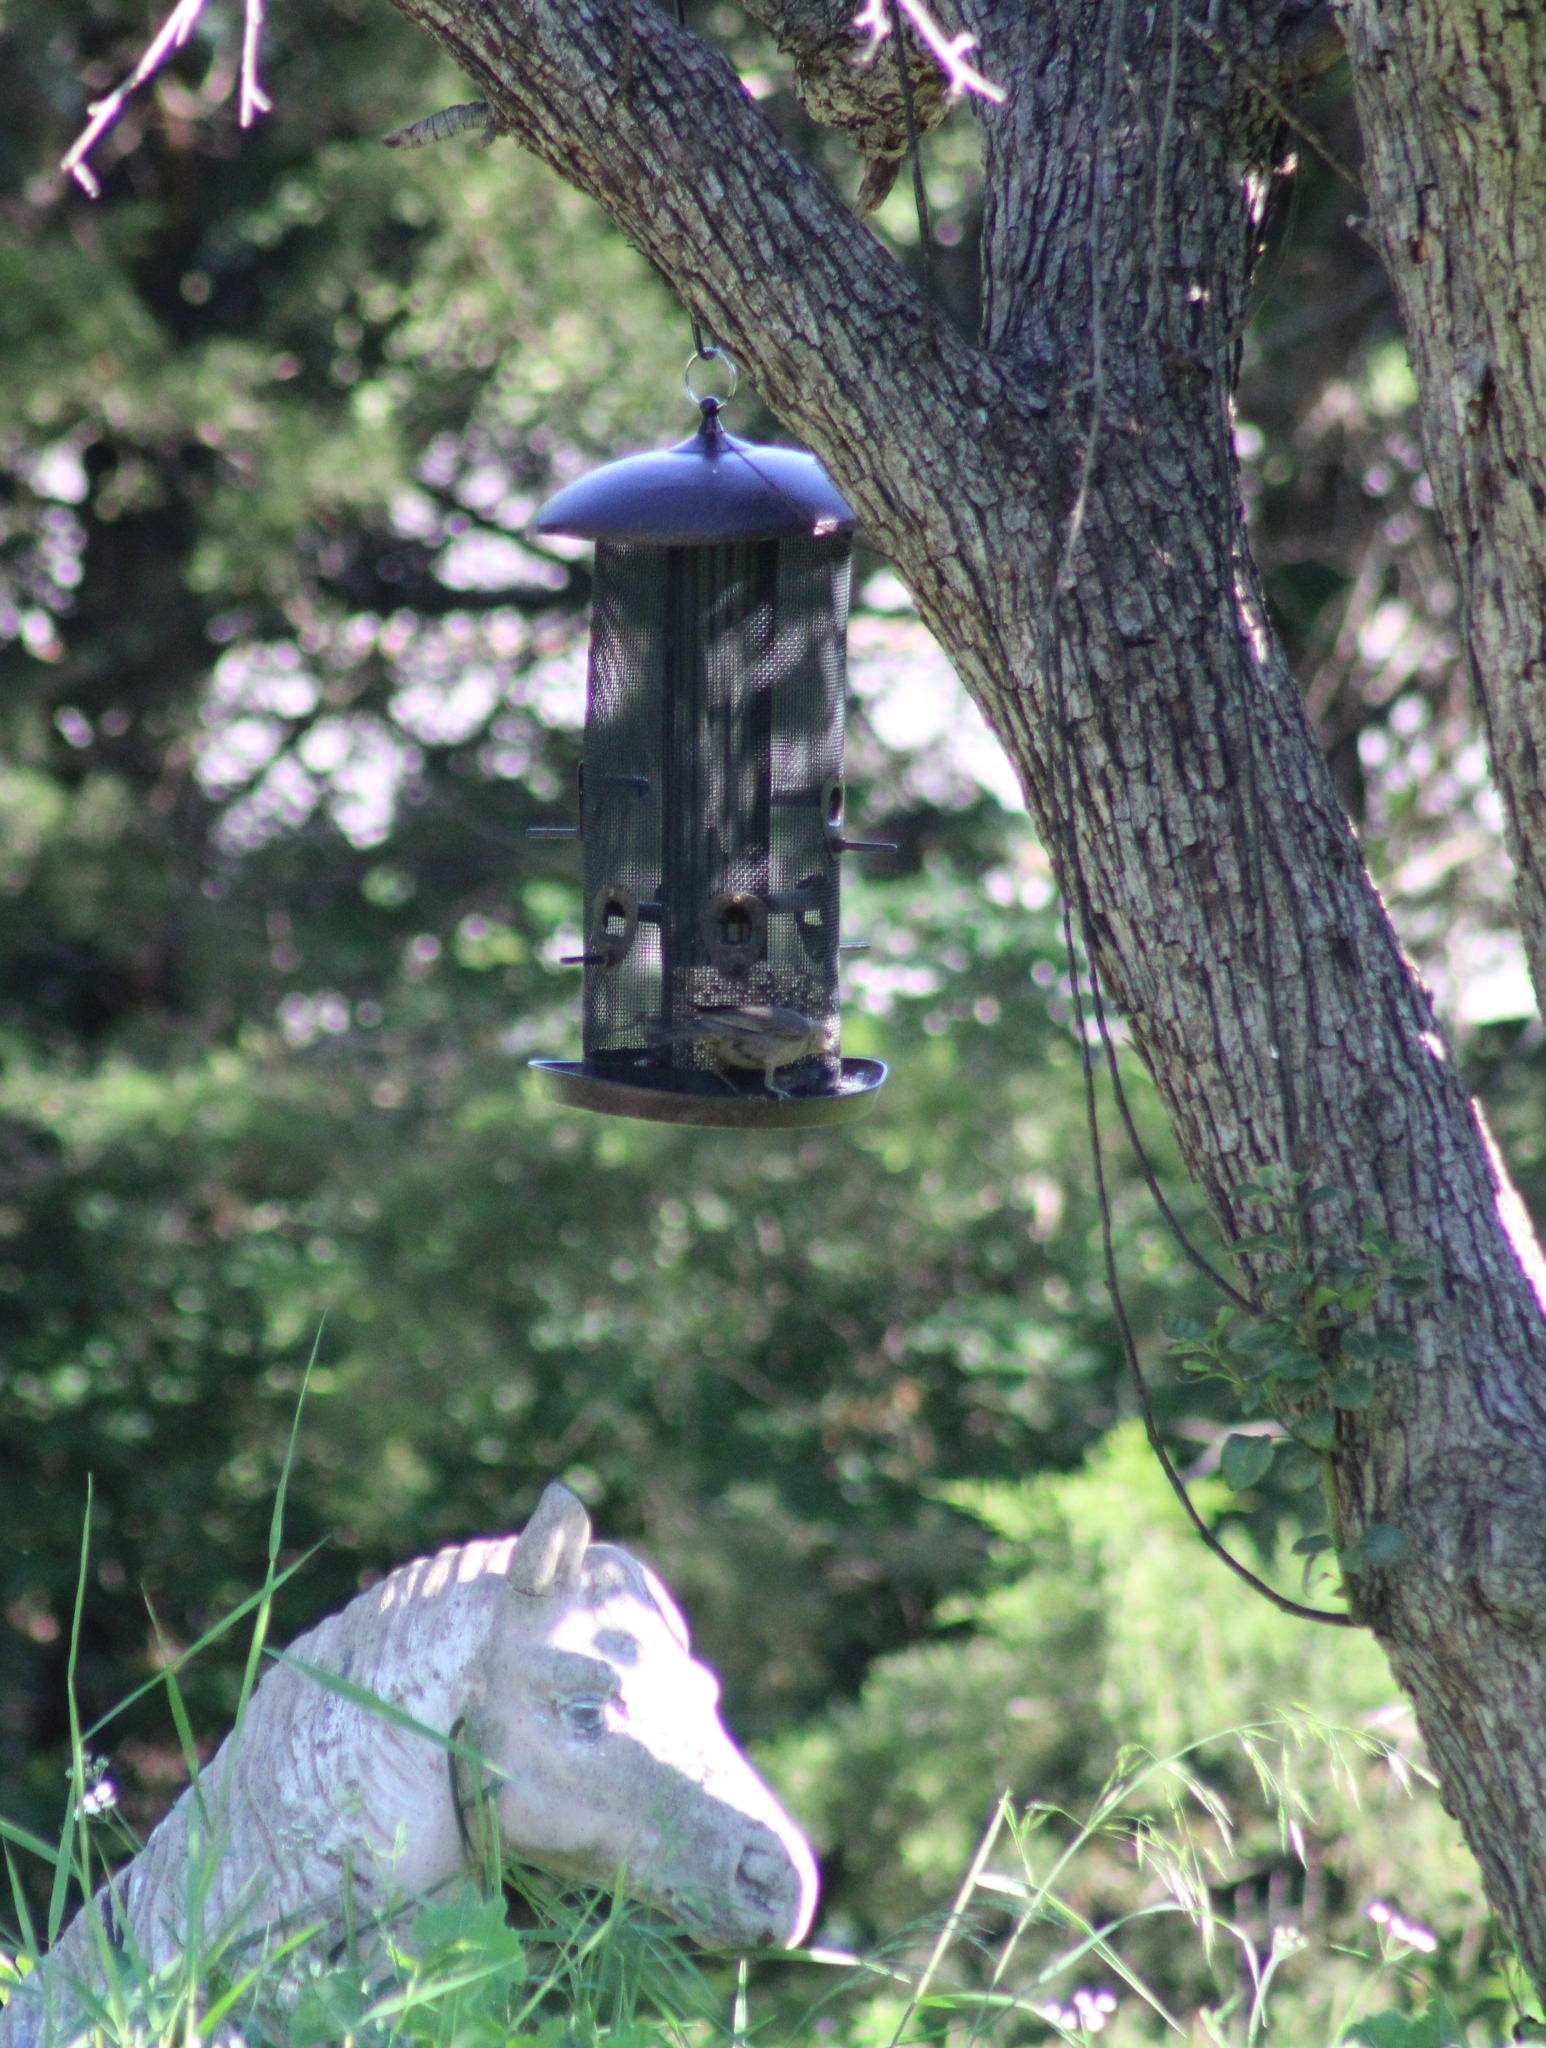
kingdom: Animalia
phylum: Chordata
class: Aves
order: Passeriformes
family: Icteridae
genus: Molothrus
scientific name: Molothrus ater
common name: Brown-headed cowbird
